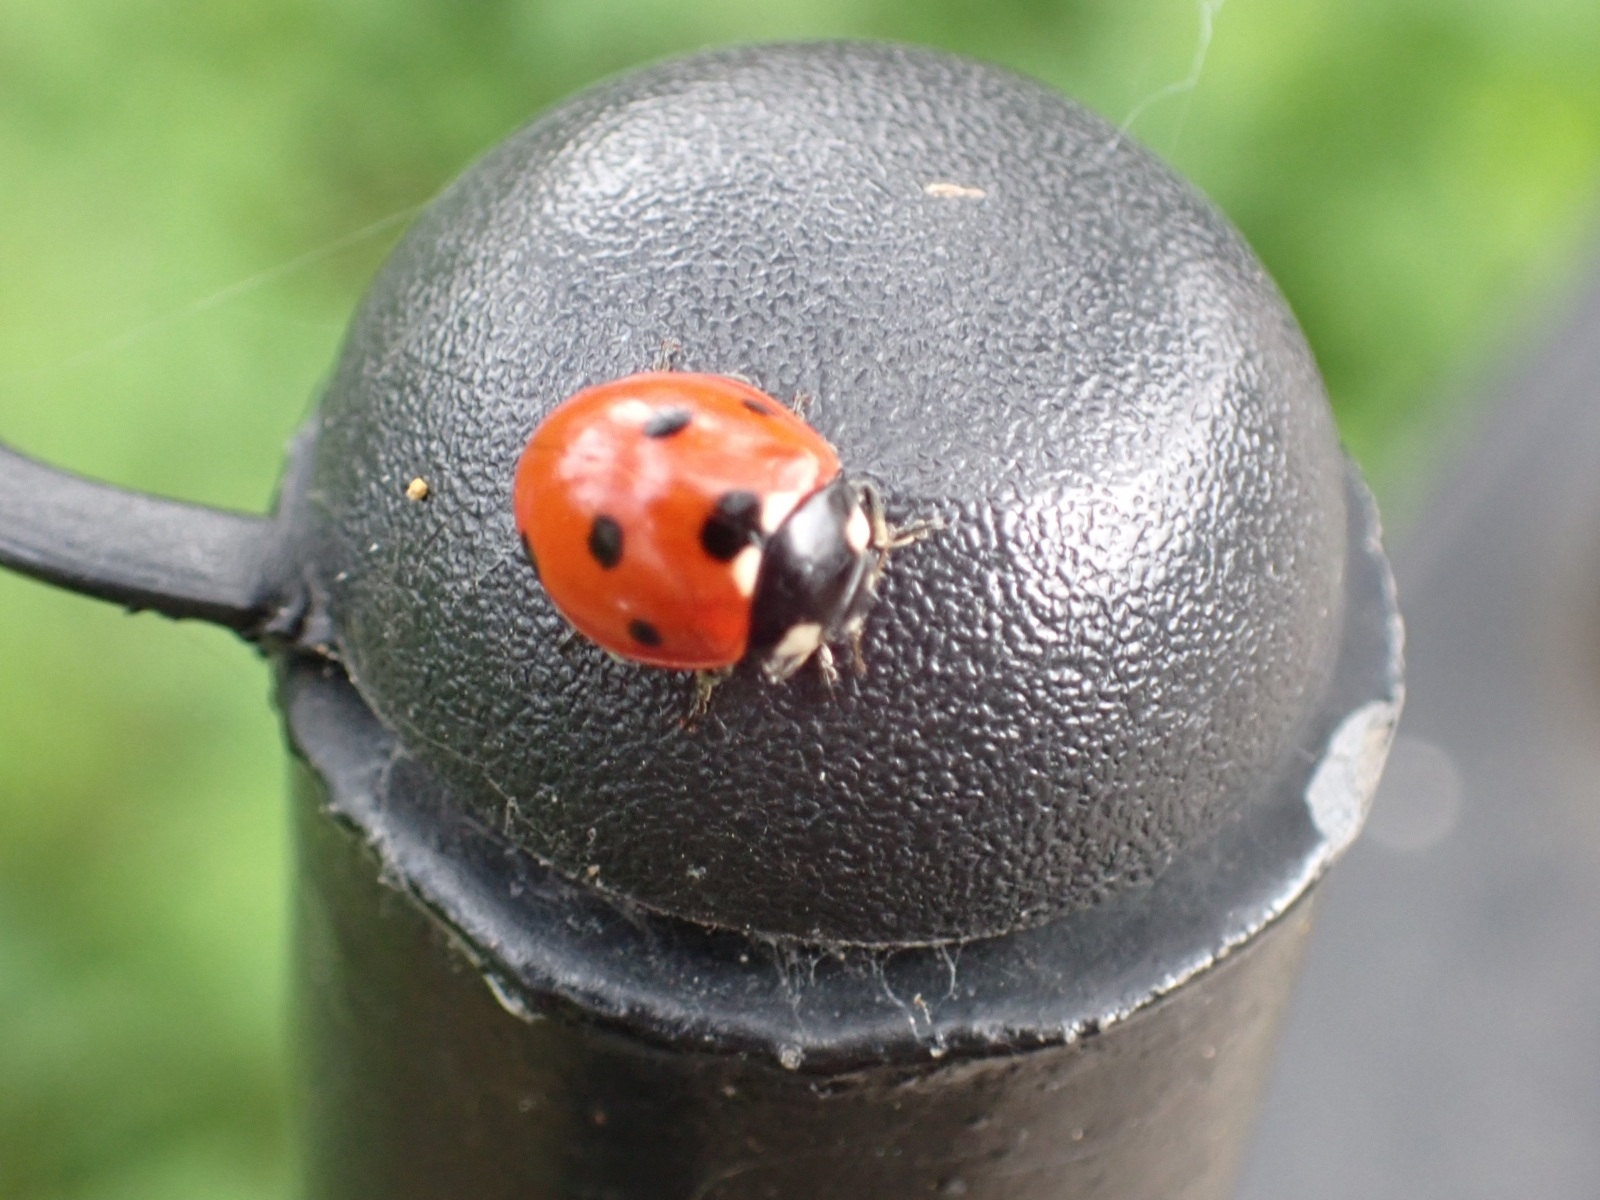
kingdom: Animalia
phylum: Arthropoda
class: Insecta
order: Coleoptera
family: Coccinellidae
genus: Coccinella
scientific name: Coccinella septempunctata
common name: Sevenspotted lady beetle
